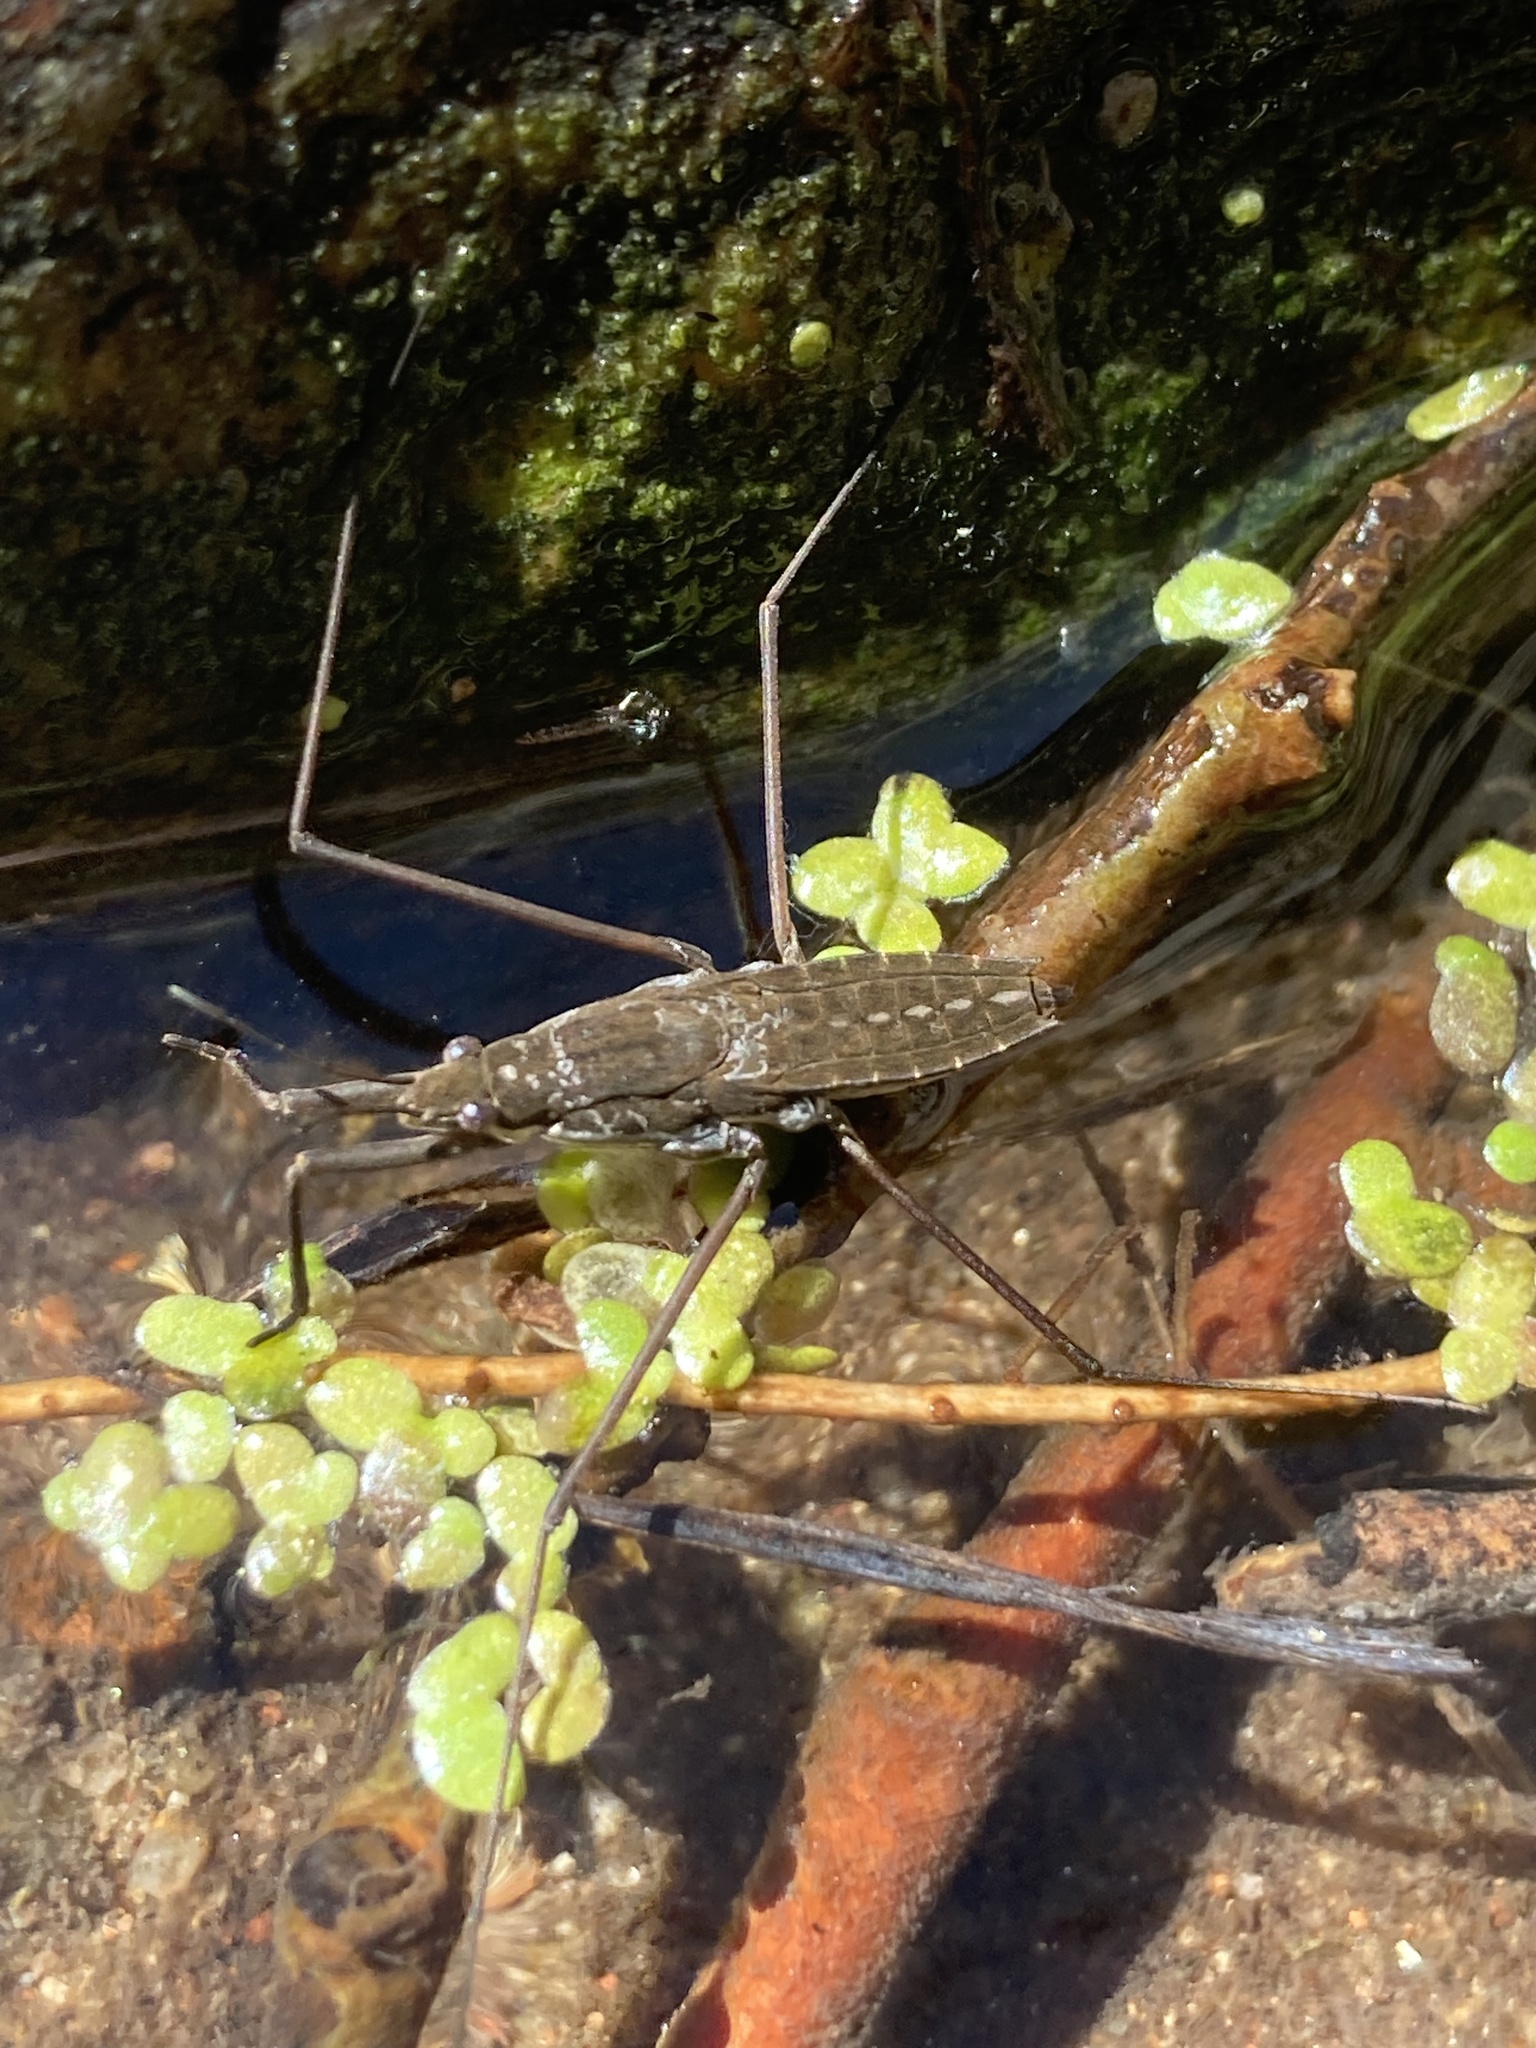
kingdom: Animalia
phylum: Arthropoda
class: Insecta
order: Hemiptera
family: Gerridae
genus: Aquarius
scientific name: Aquarius remigis
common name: Common water strider
